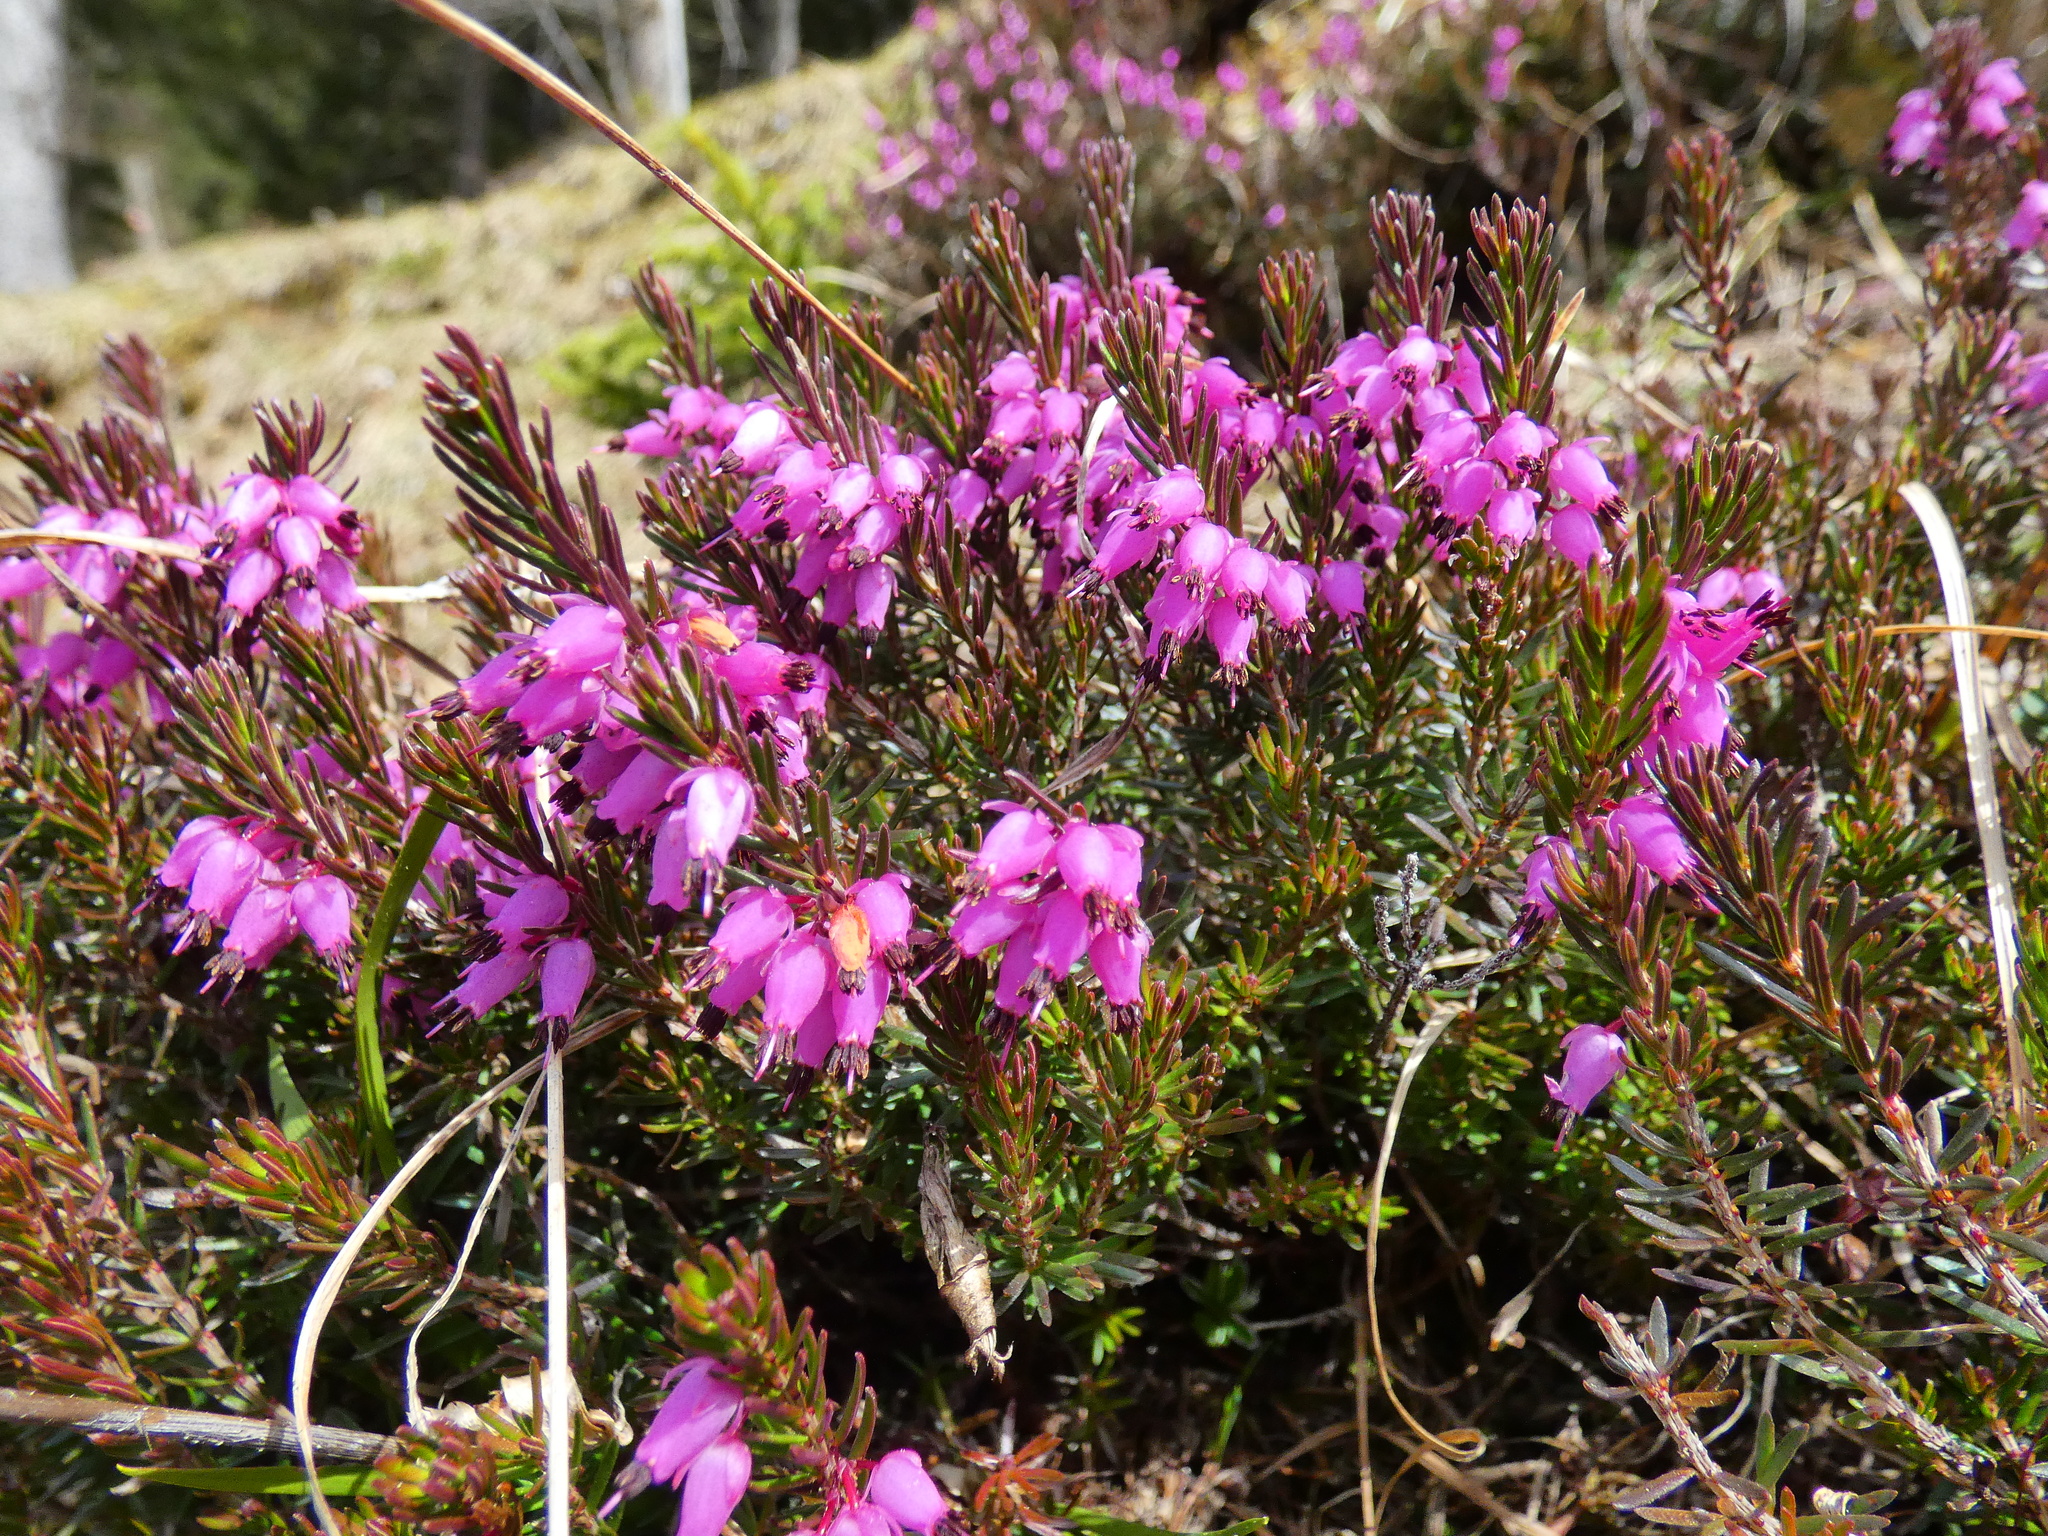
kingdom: Plantae
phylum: Tracheophyta
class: Magnoliopsida
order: Ericales
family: Ericaceae
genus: Erica
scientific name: Erica carnea
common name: Winter heath
